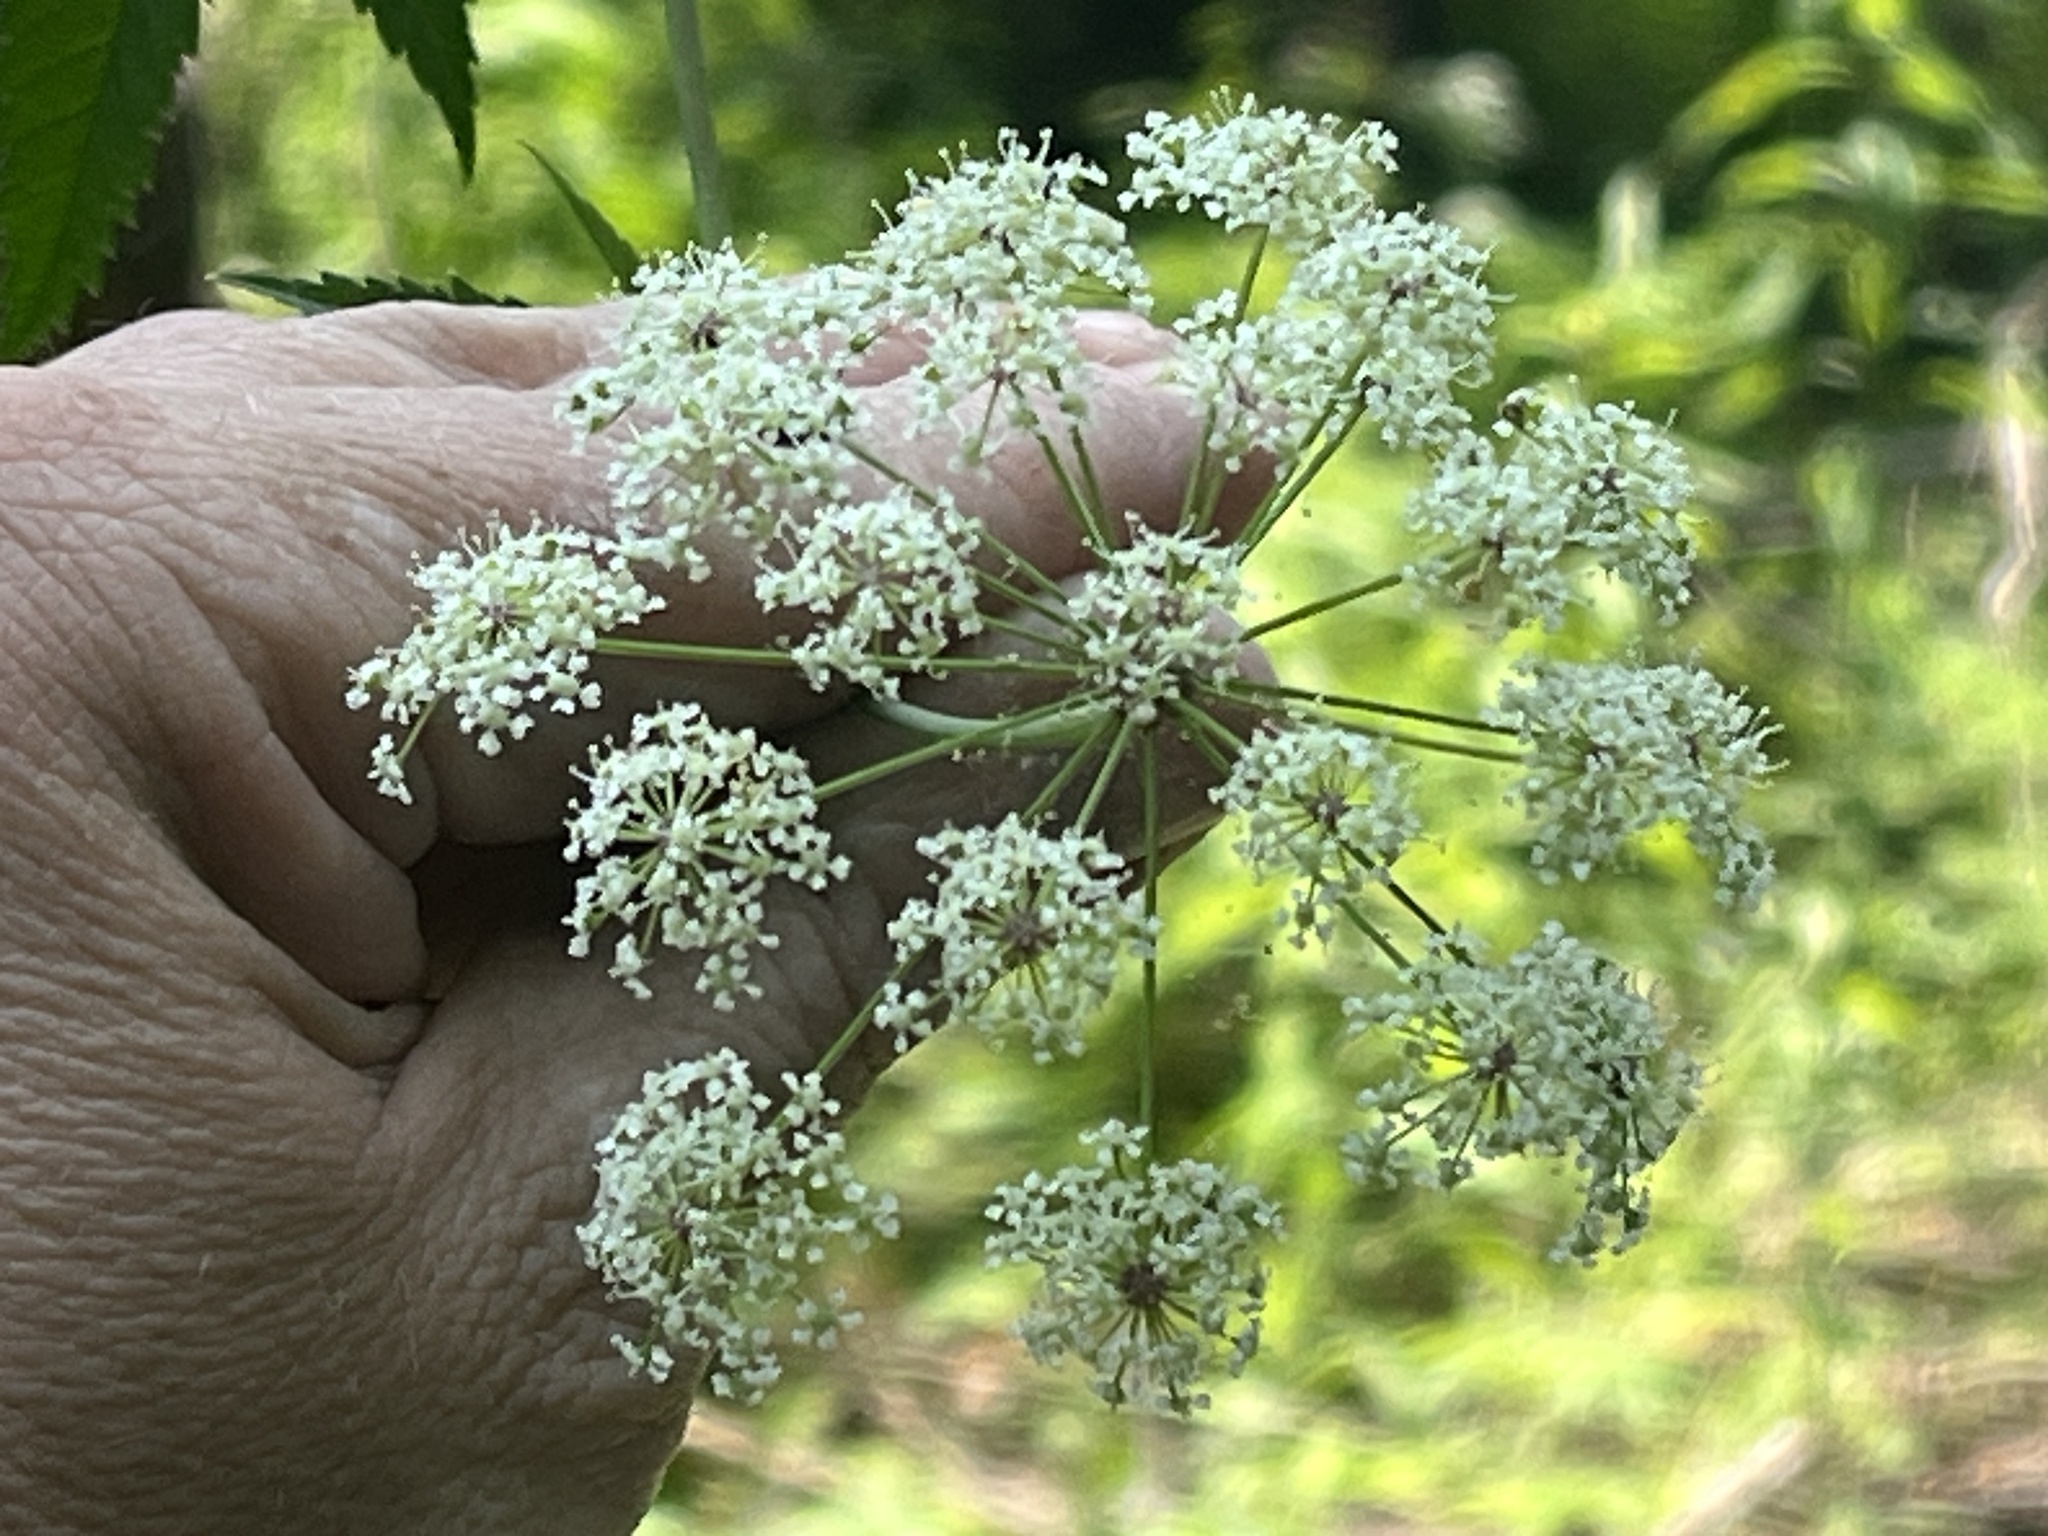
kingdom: Plantae
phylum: Tracheophyta
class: Magnoliopsida
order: Apiales
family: Apiaceae
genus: Cicuta
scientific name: Cicuta maculata
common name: Spotted cowbane
